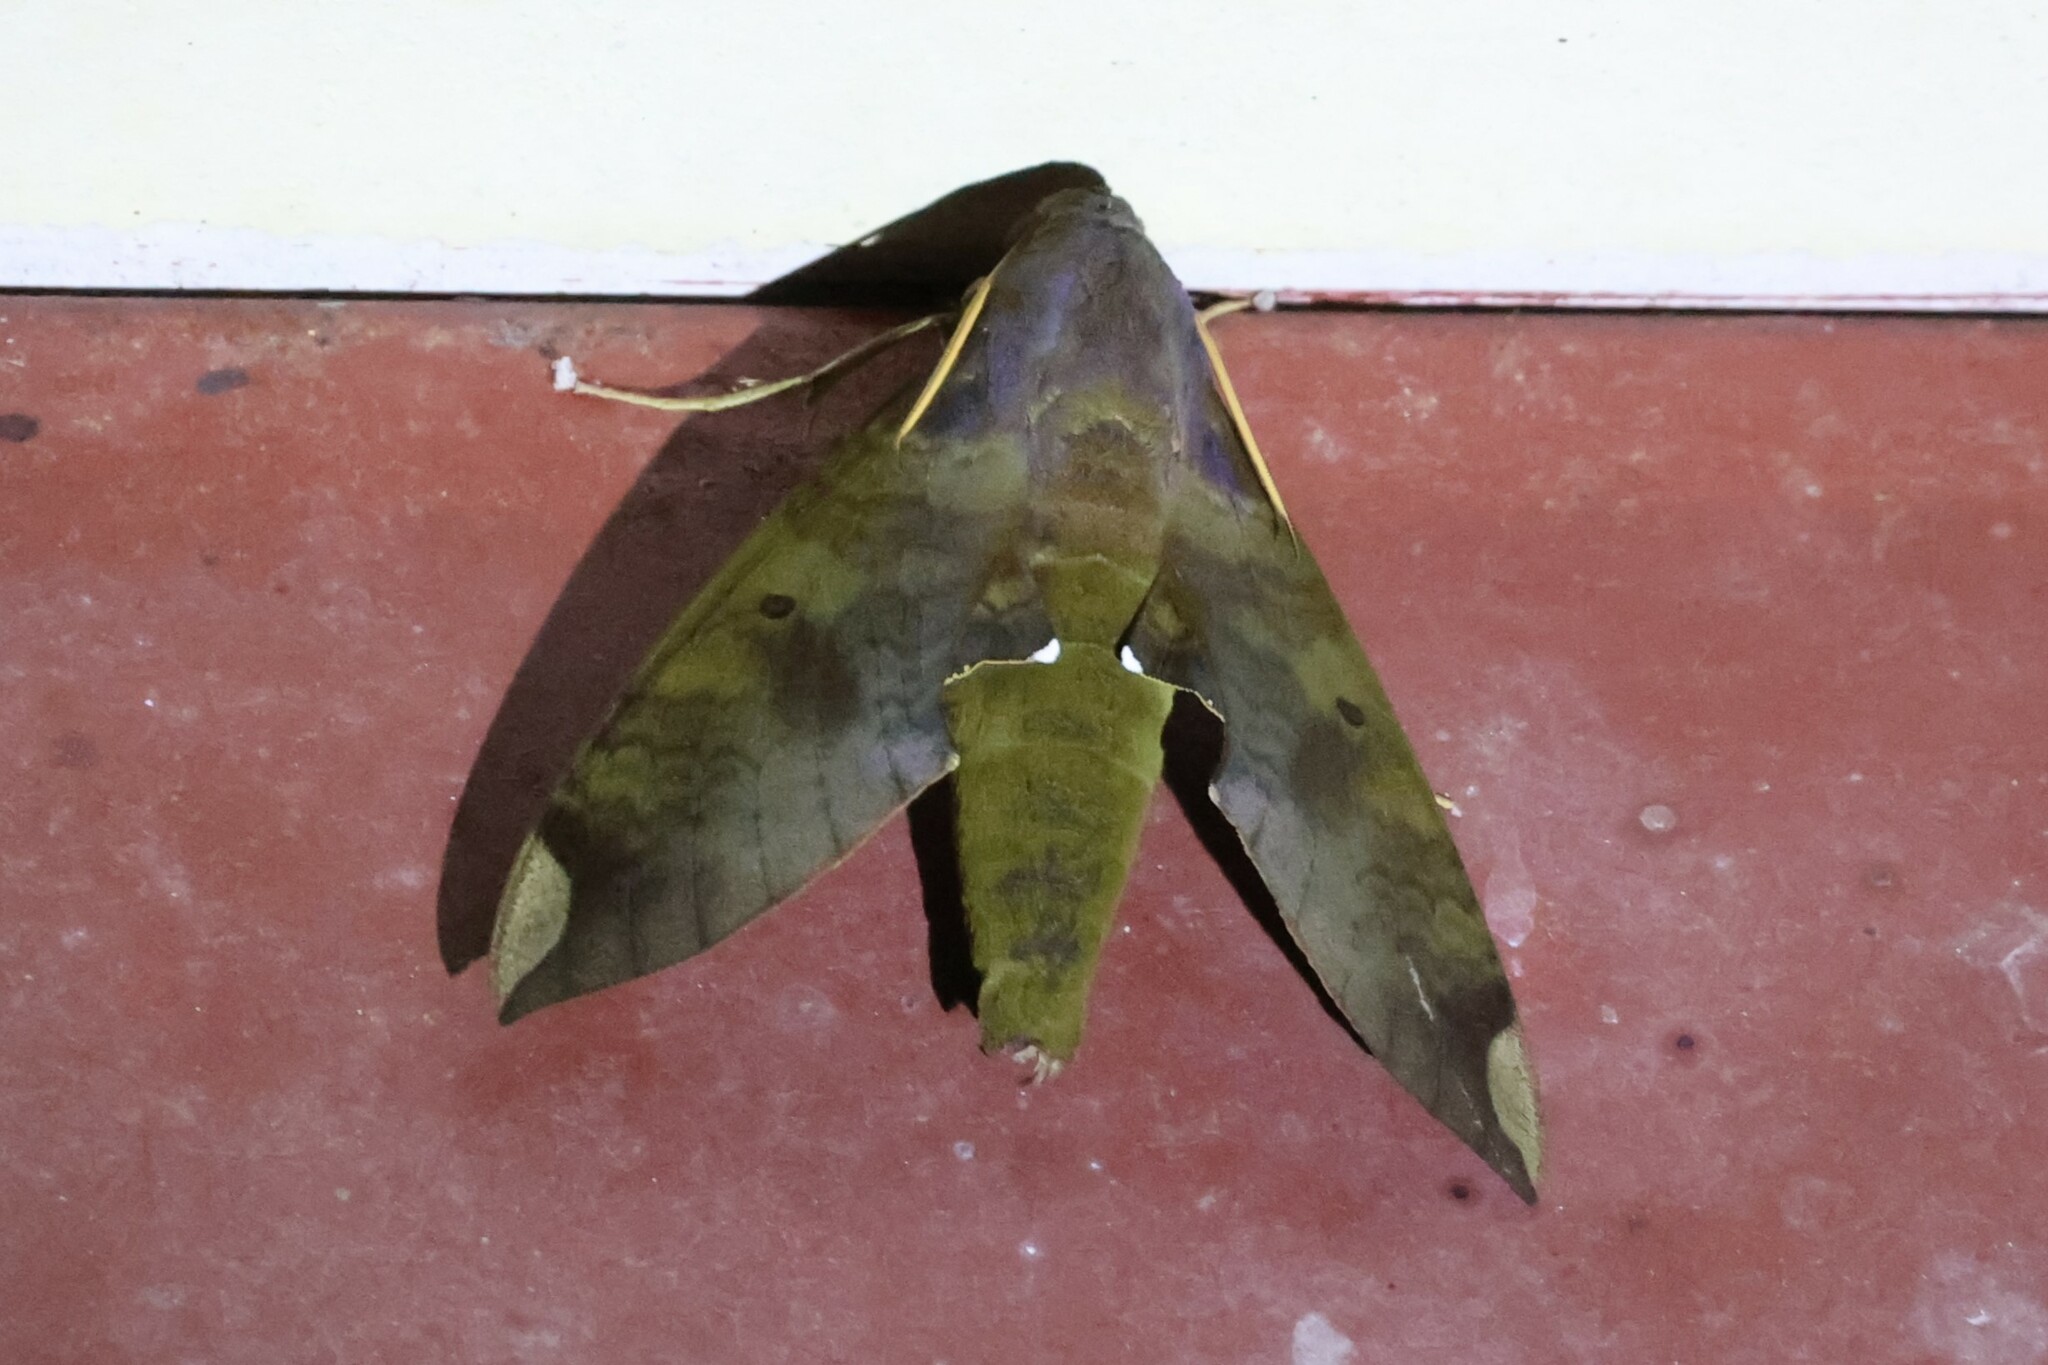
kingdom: Animalia
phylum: Arthropoda
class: Insecta
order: Lepidoptera
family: Sphingidae
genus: Pachylia
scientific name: Pachylia ficus
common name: Fig sphinx
